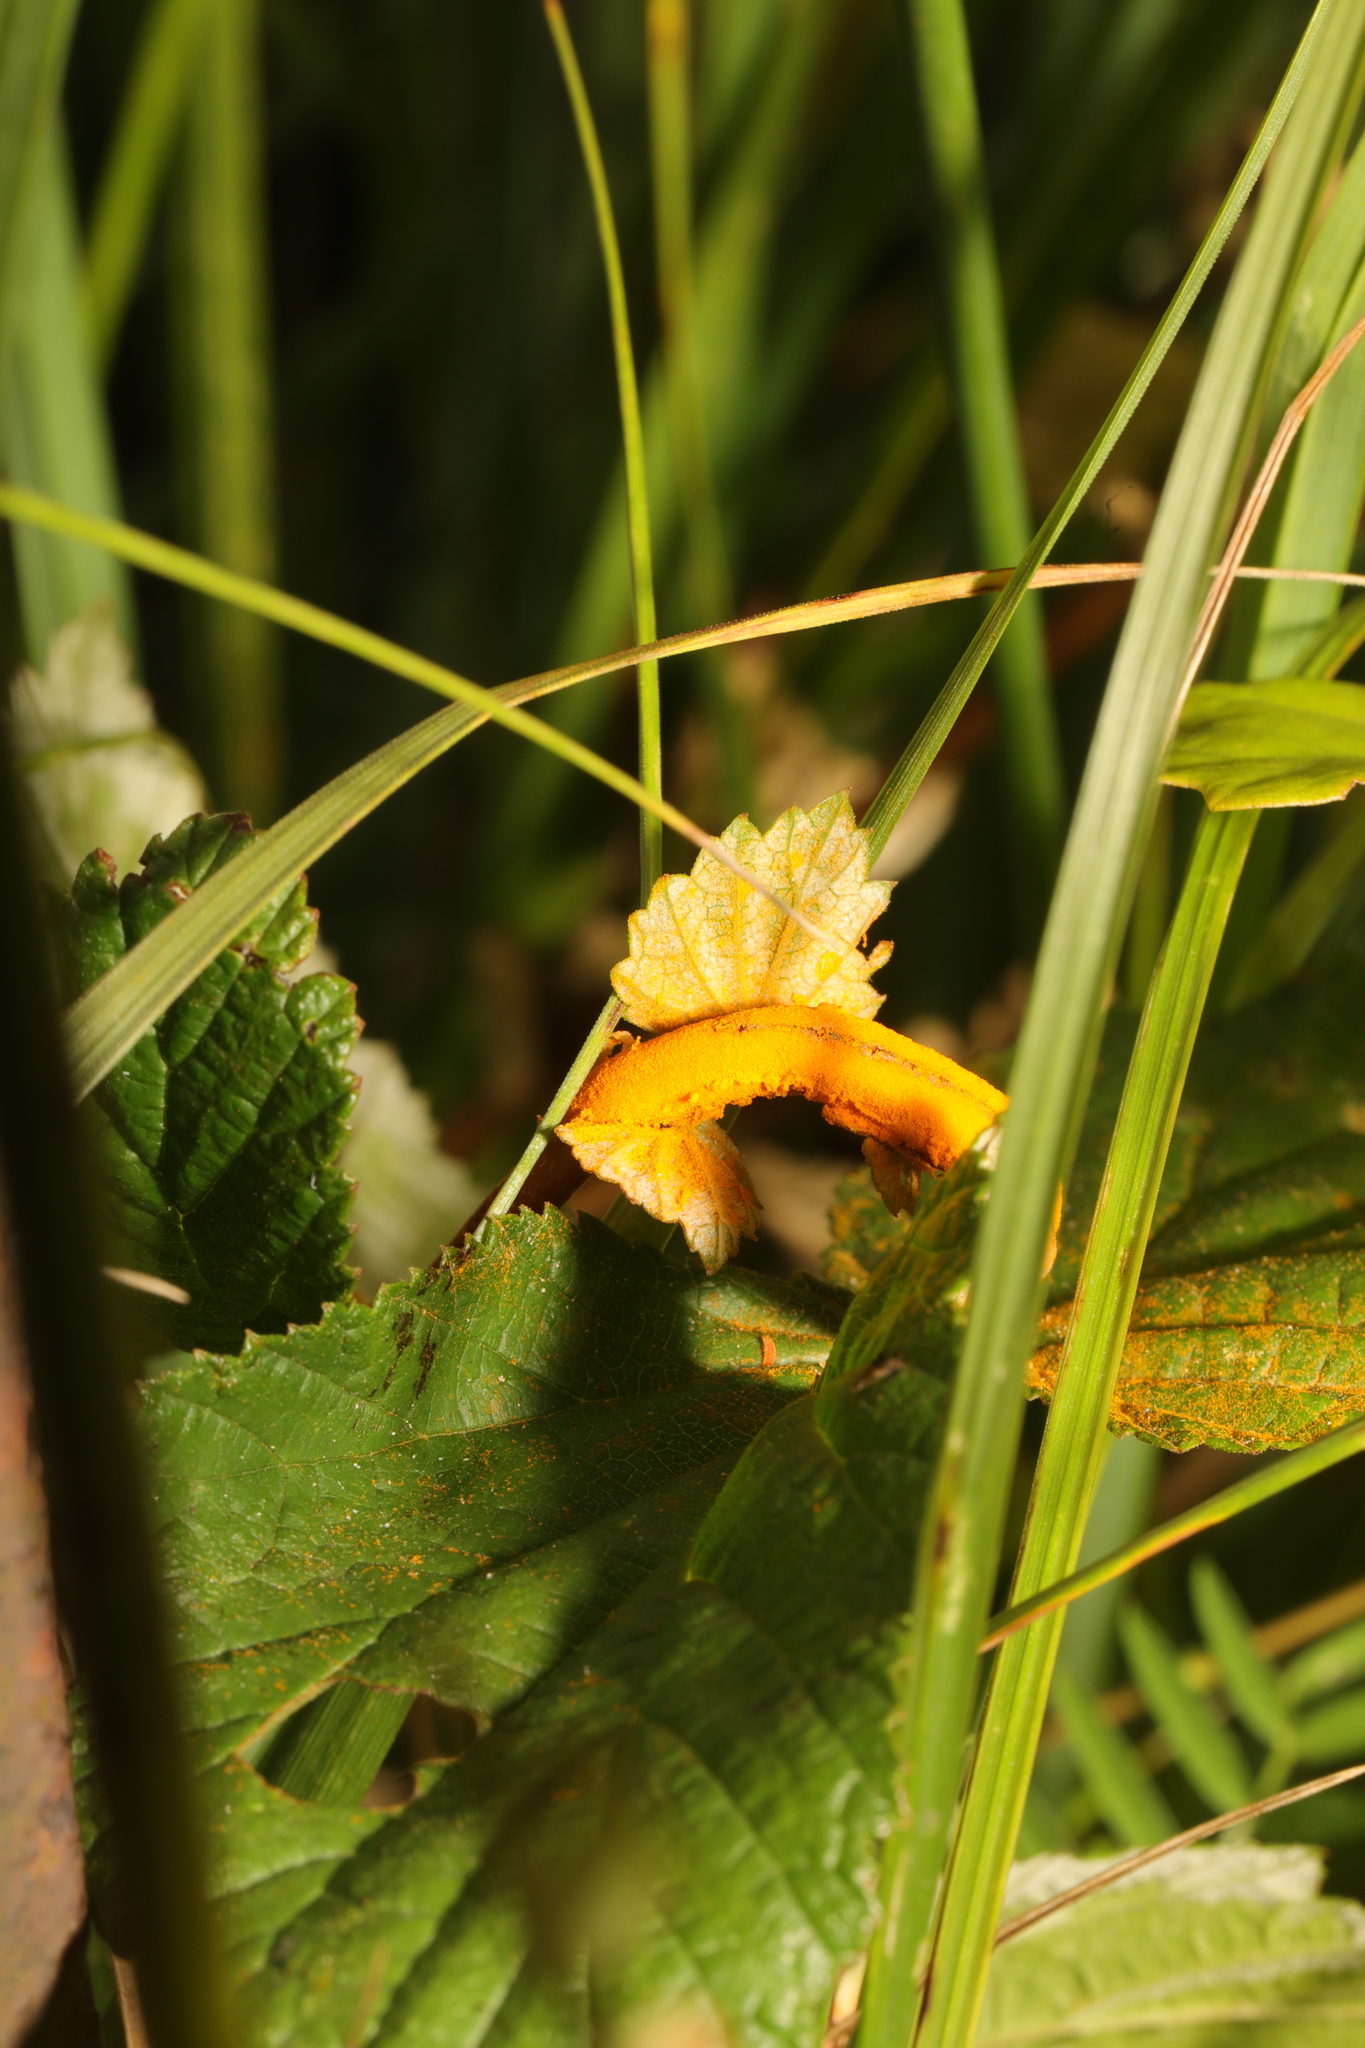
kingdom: Fungi
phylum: Basidiomycota
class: Pucciniomycetes
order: Pucciniales
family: Raveneliaceae
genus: Triphragmium
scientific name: Triphragmium ulmariae
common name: Meadowsweet rust
